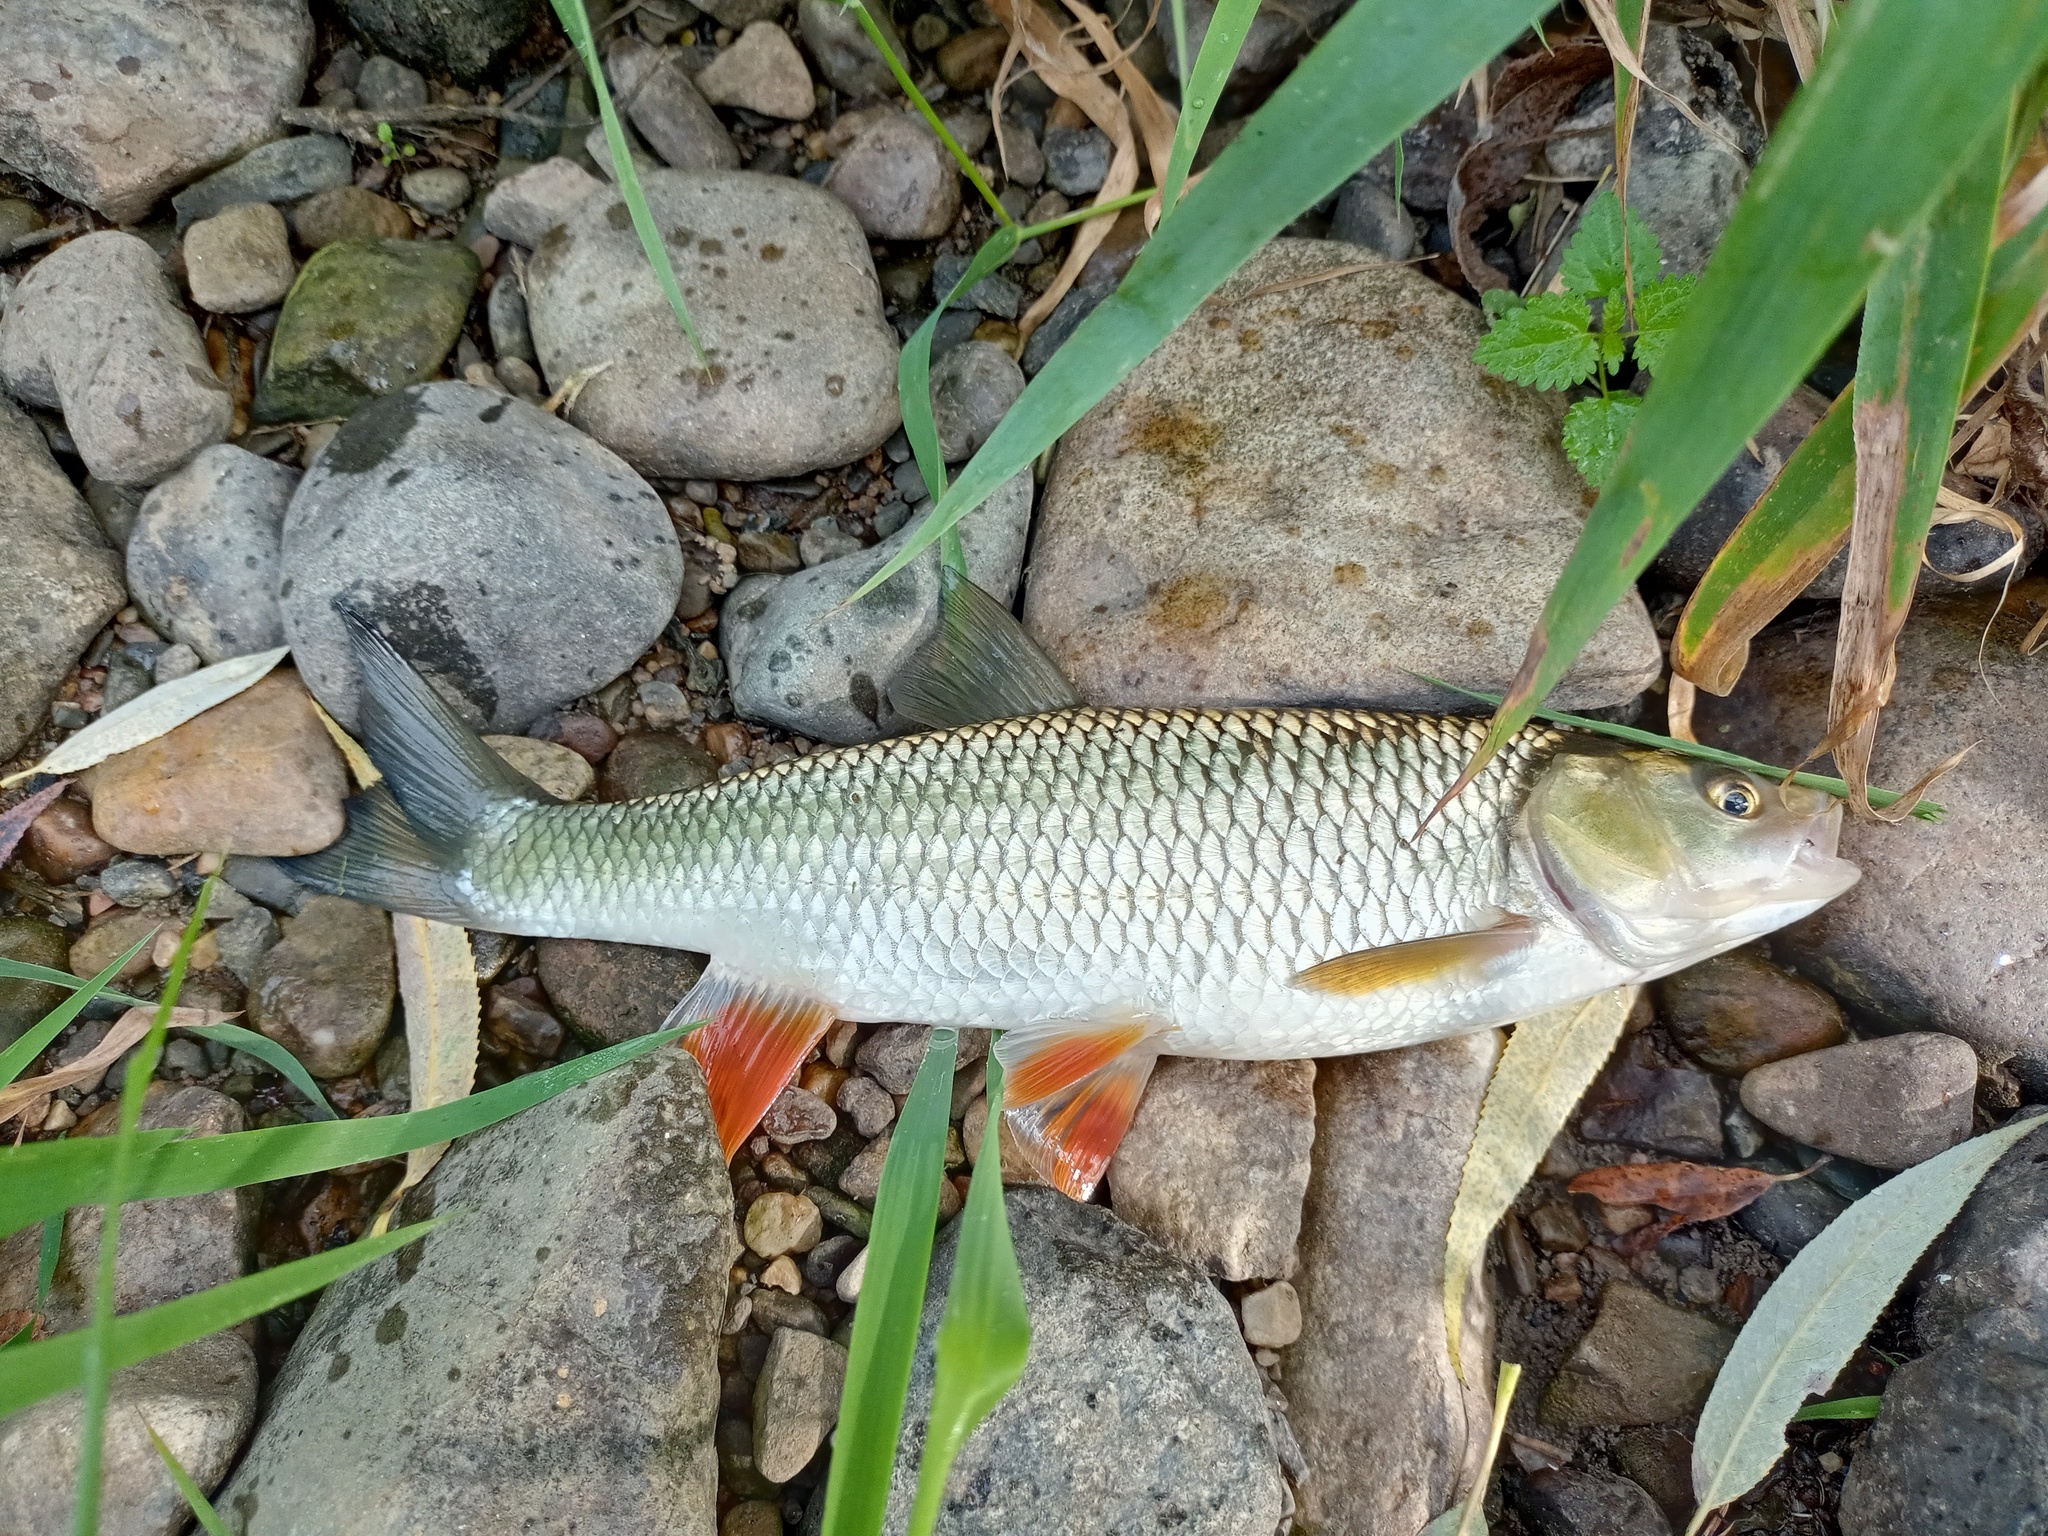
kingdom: Animalia
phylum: Chordata
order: Cypriniformes
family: Cyprinidae
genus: Squalius
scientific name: Squalius cephalus
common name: Chub
